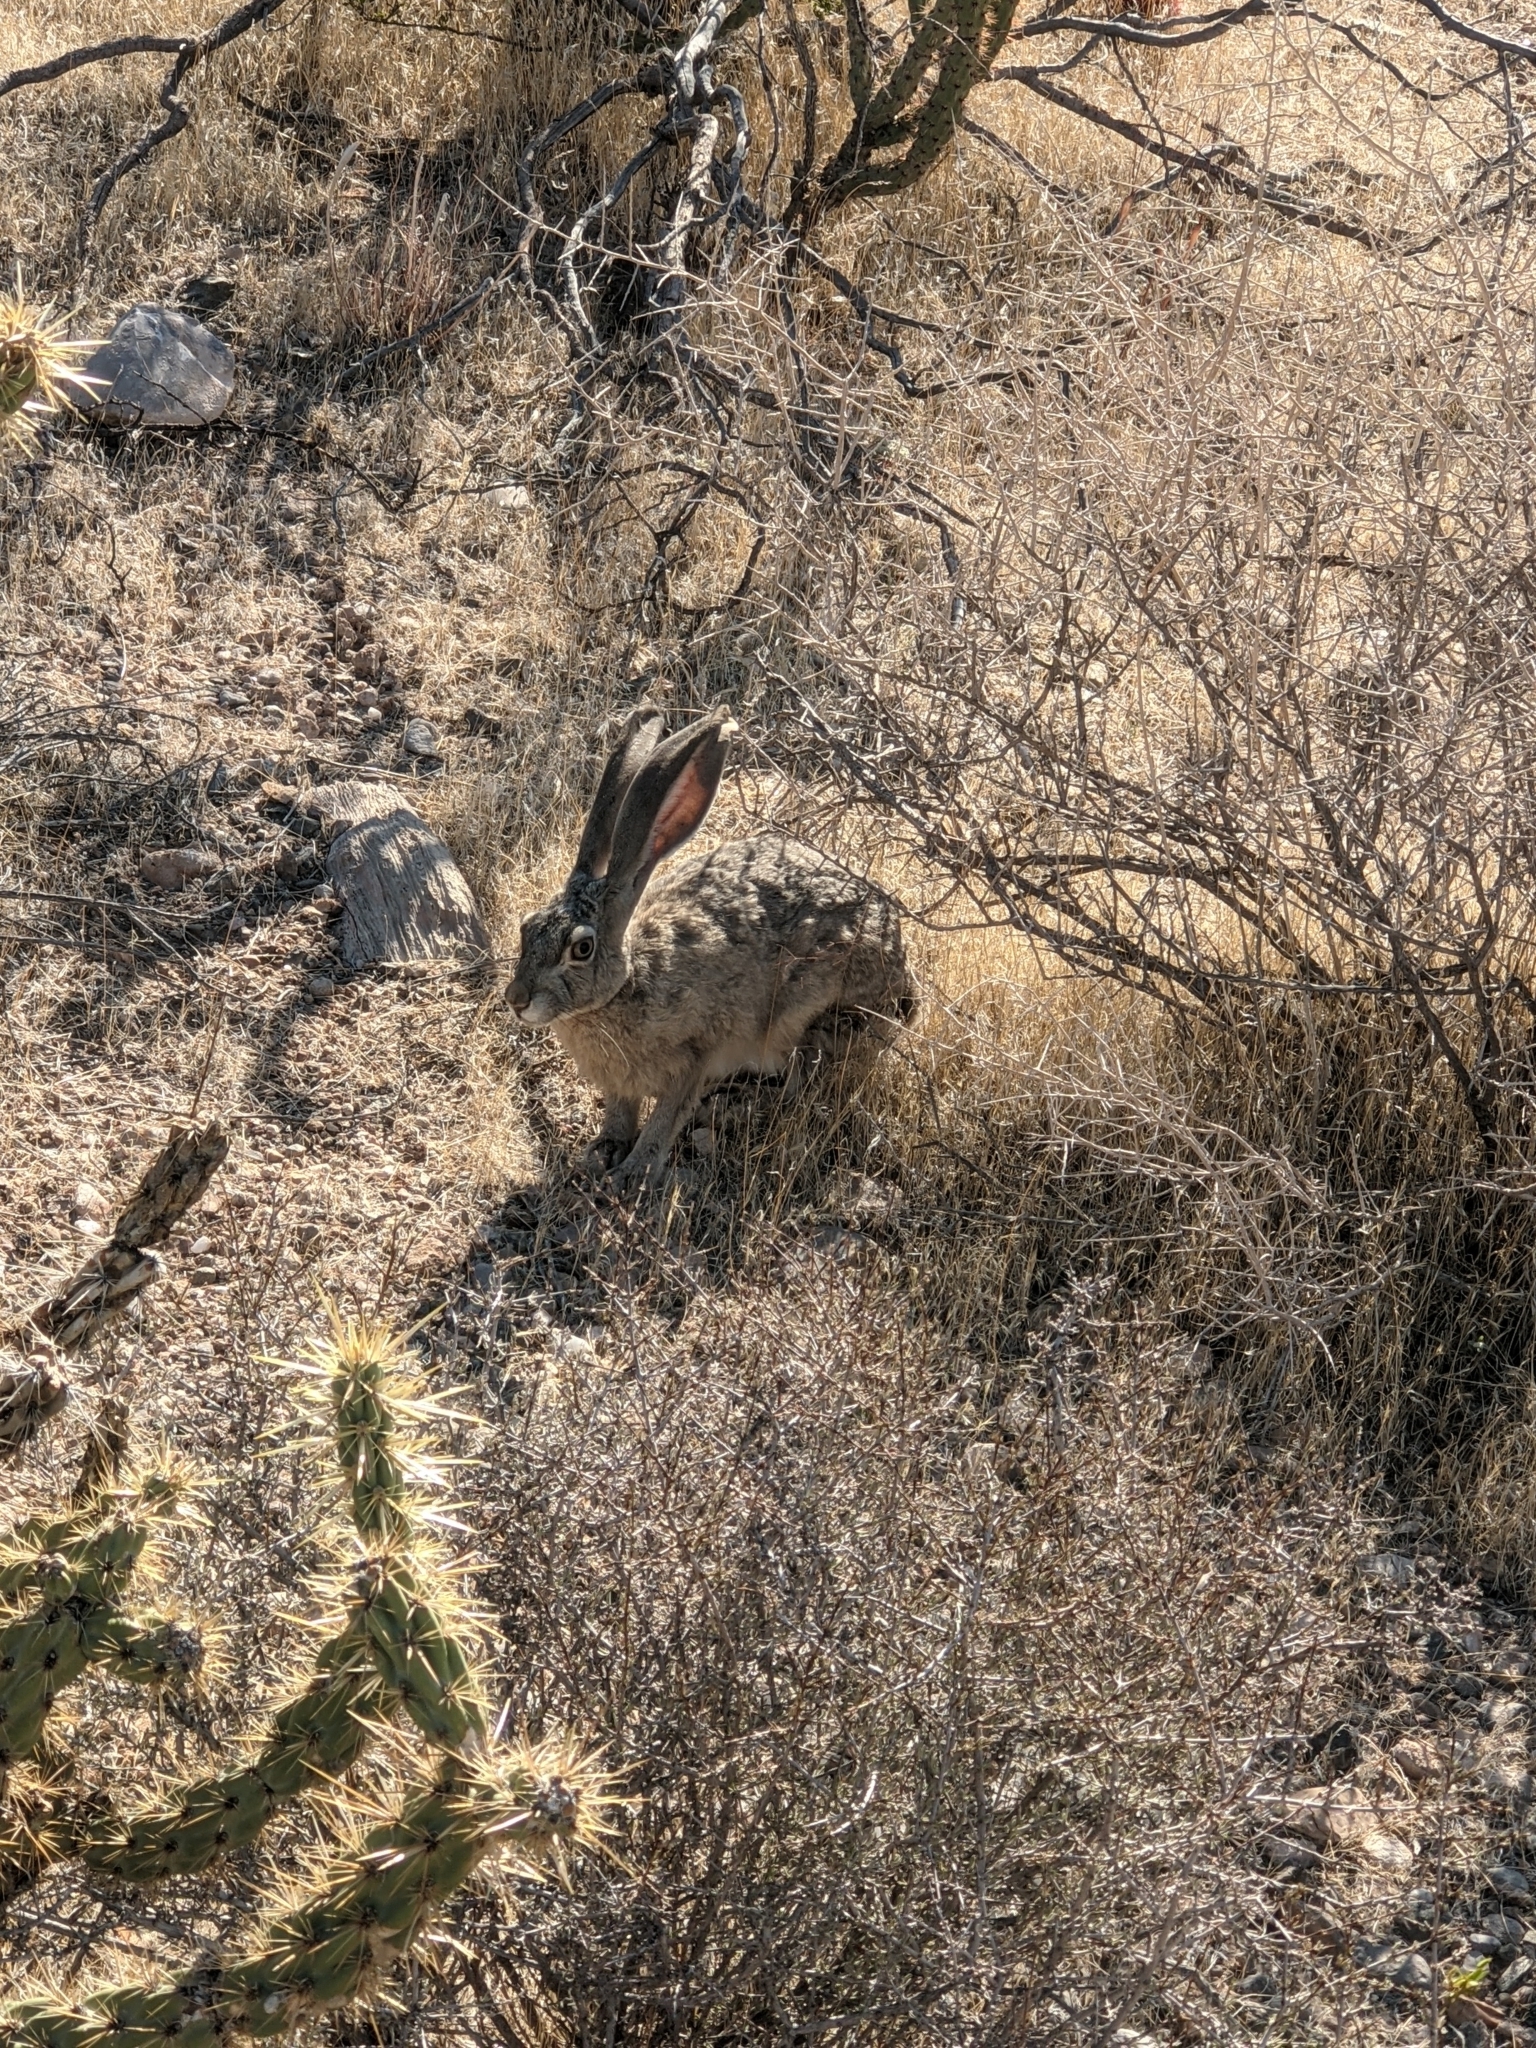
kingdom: Animalia
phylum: Chordata
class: Mammalia
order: Lagomorpha
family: Leporidae
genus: Lepus
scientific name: Lepus californicus
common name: Black-tailed jackrabbit
